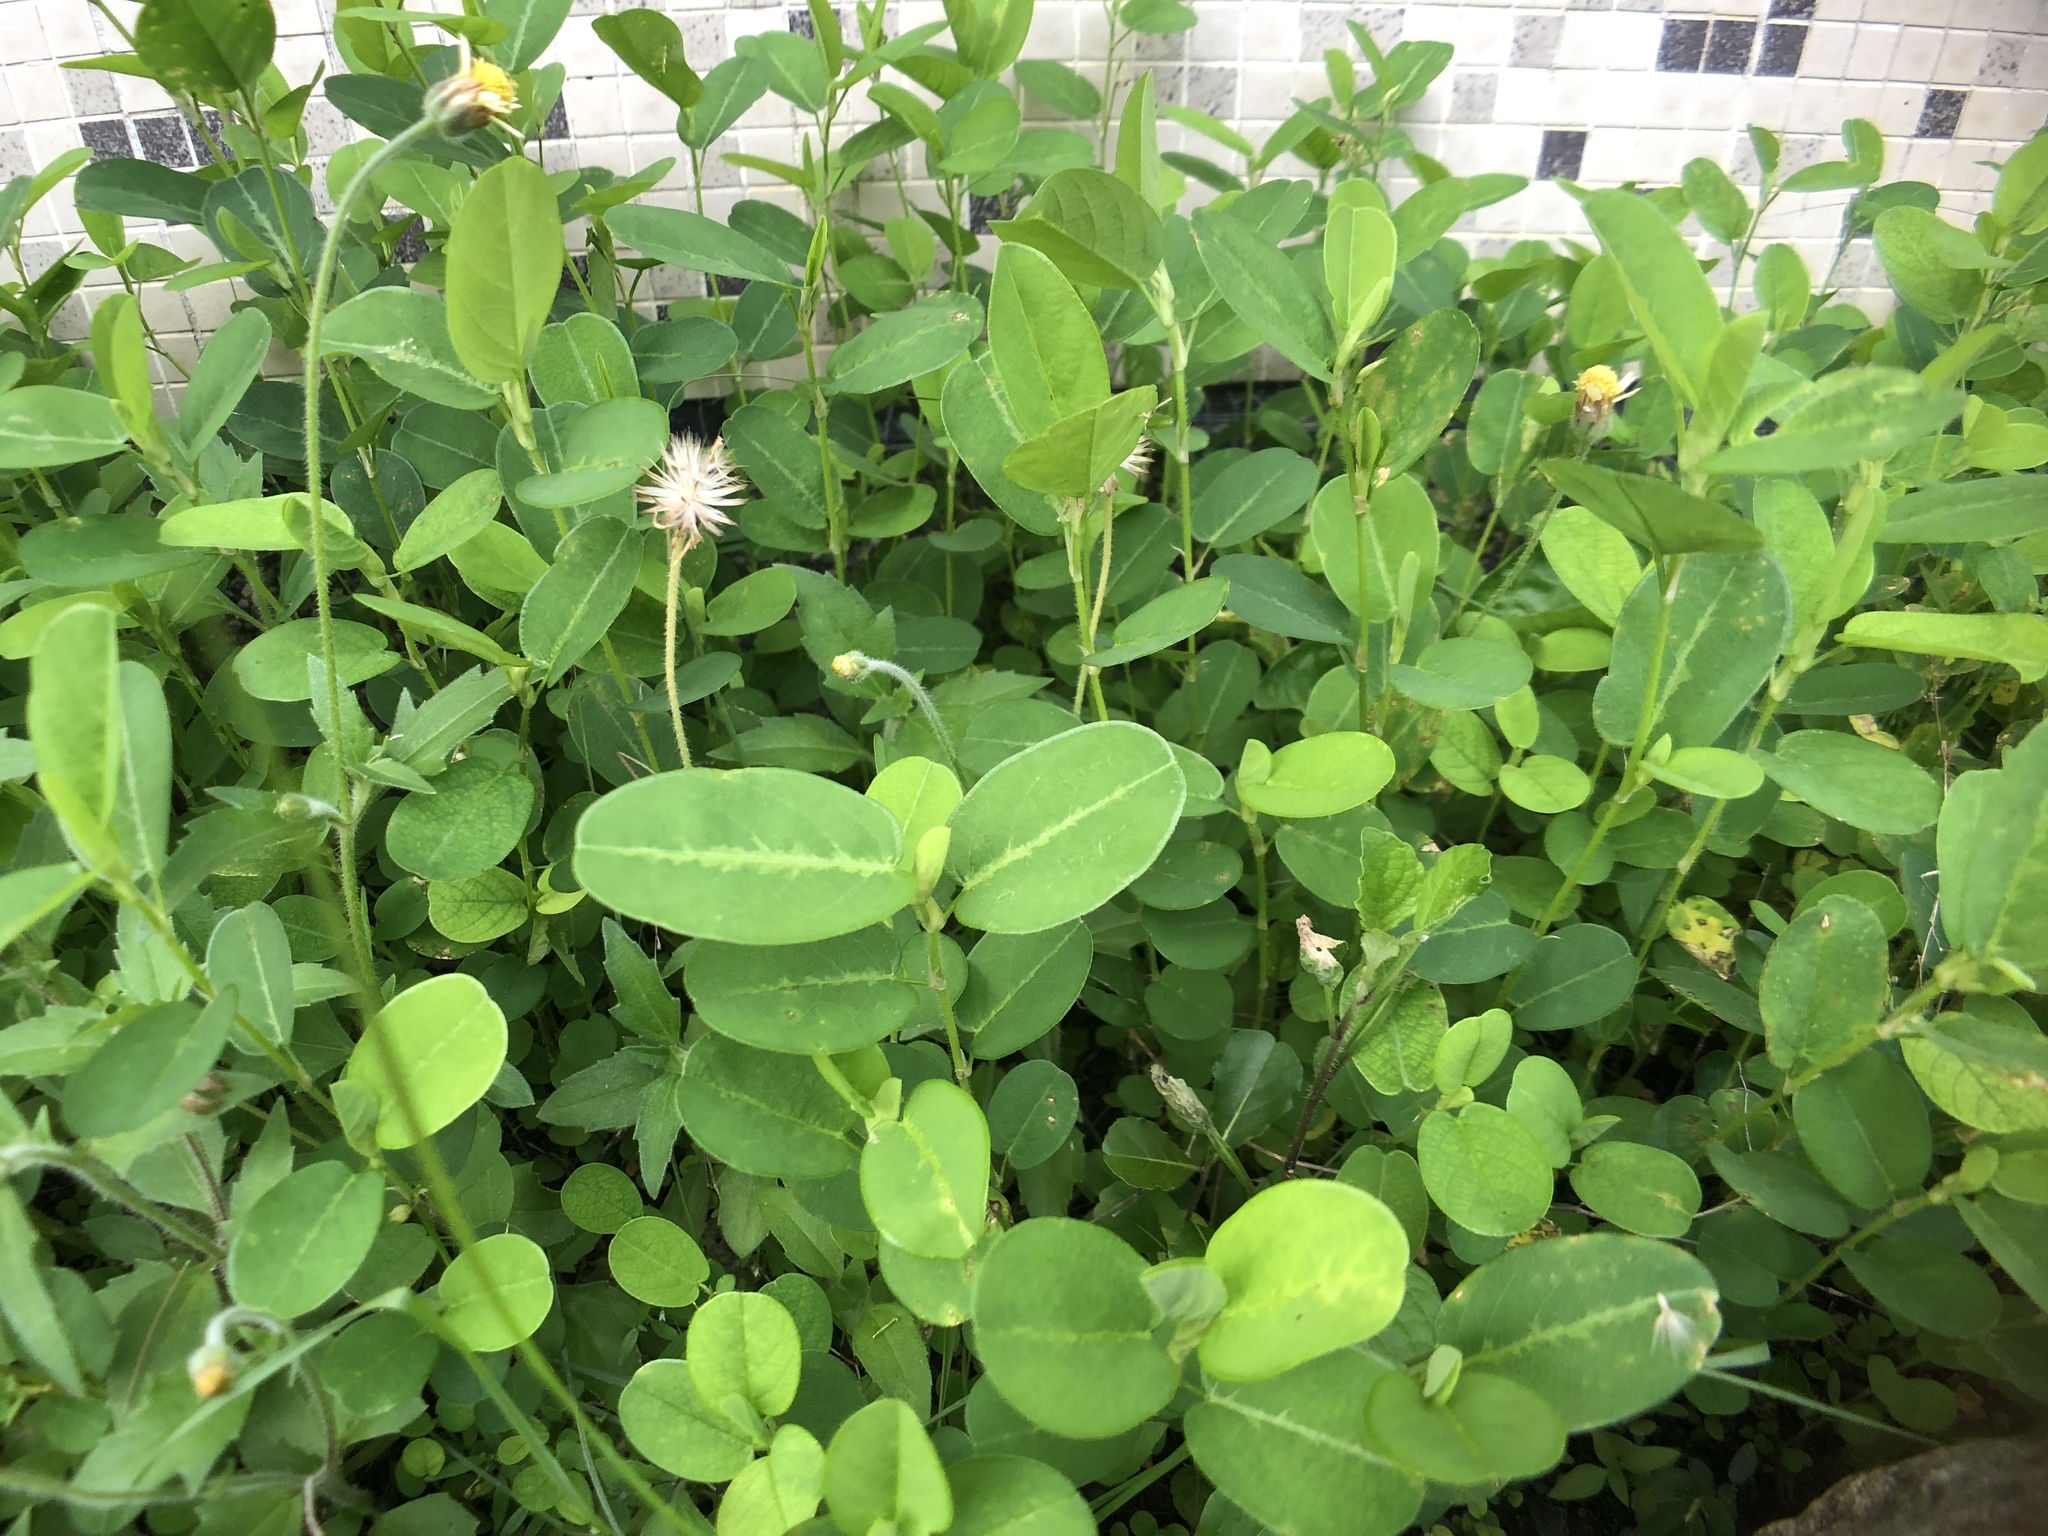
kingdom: Plantae
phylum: Tracheophyta
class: Magnoliopsida
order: Fabales
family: Fabaceae
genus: Alysicarpus
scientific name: Alysicarpus ovalifolius
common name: Alyce clover
